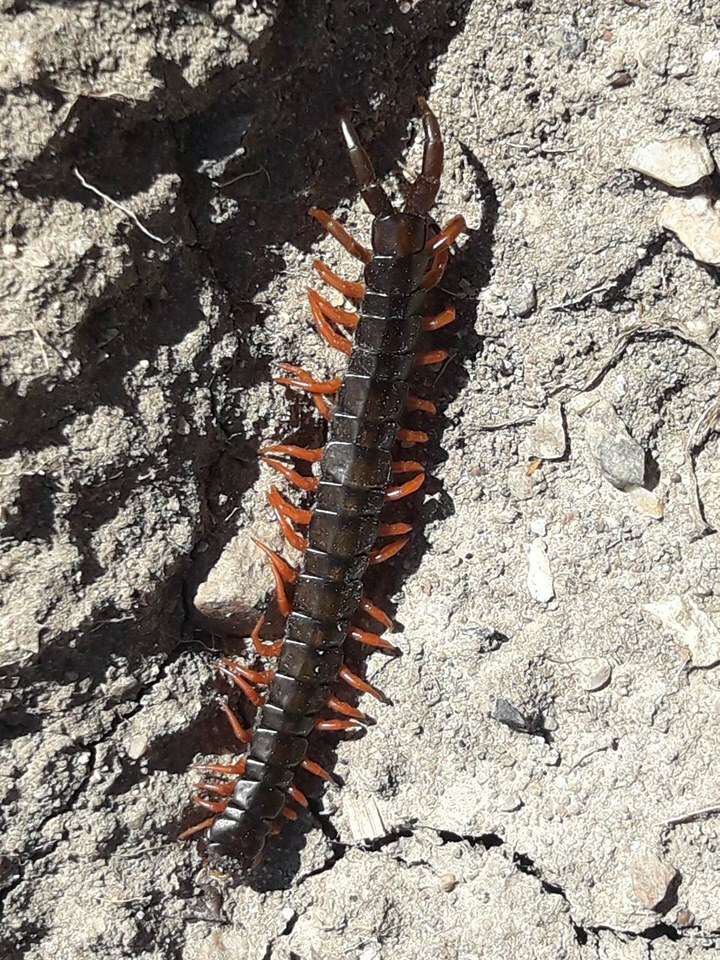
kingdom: Animalia
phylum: Arthropoda
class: Chilopoda
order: Scolopendromorpha
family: Scolopendridae
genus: Scolopendra
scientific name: Scolopendra cingulata
